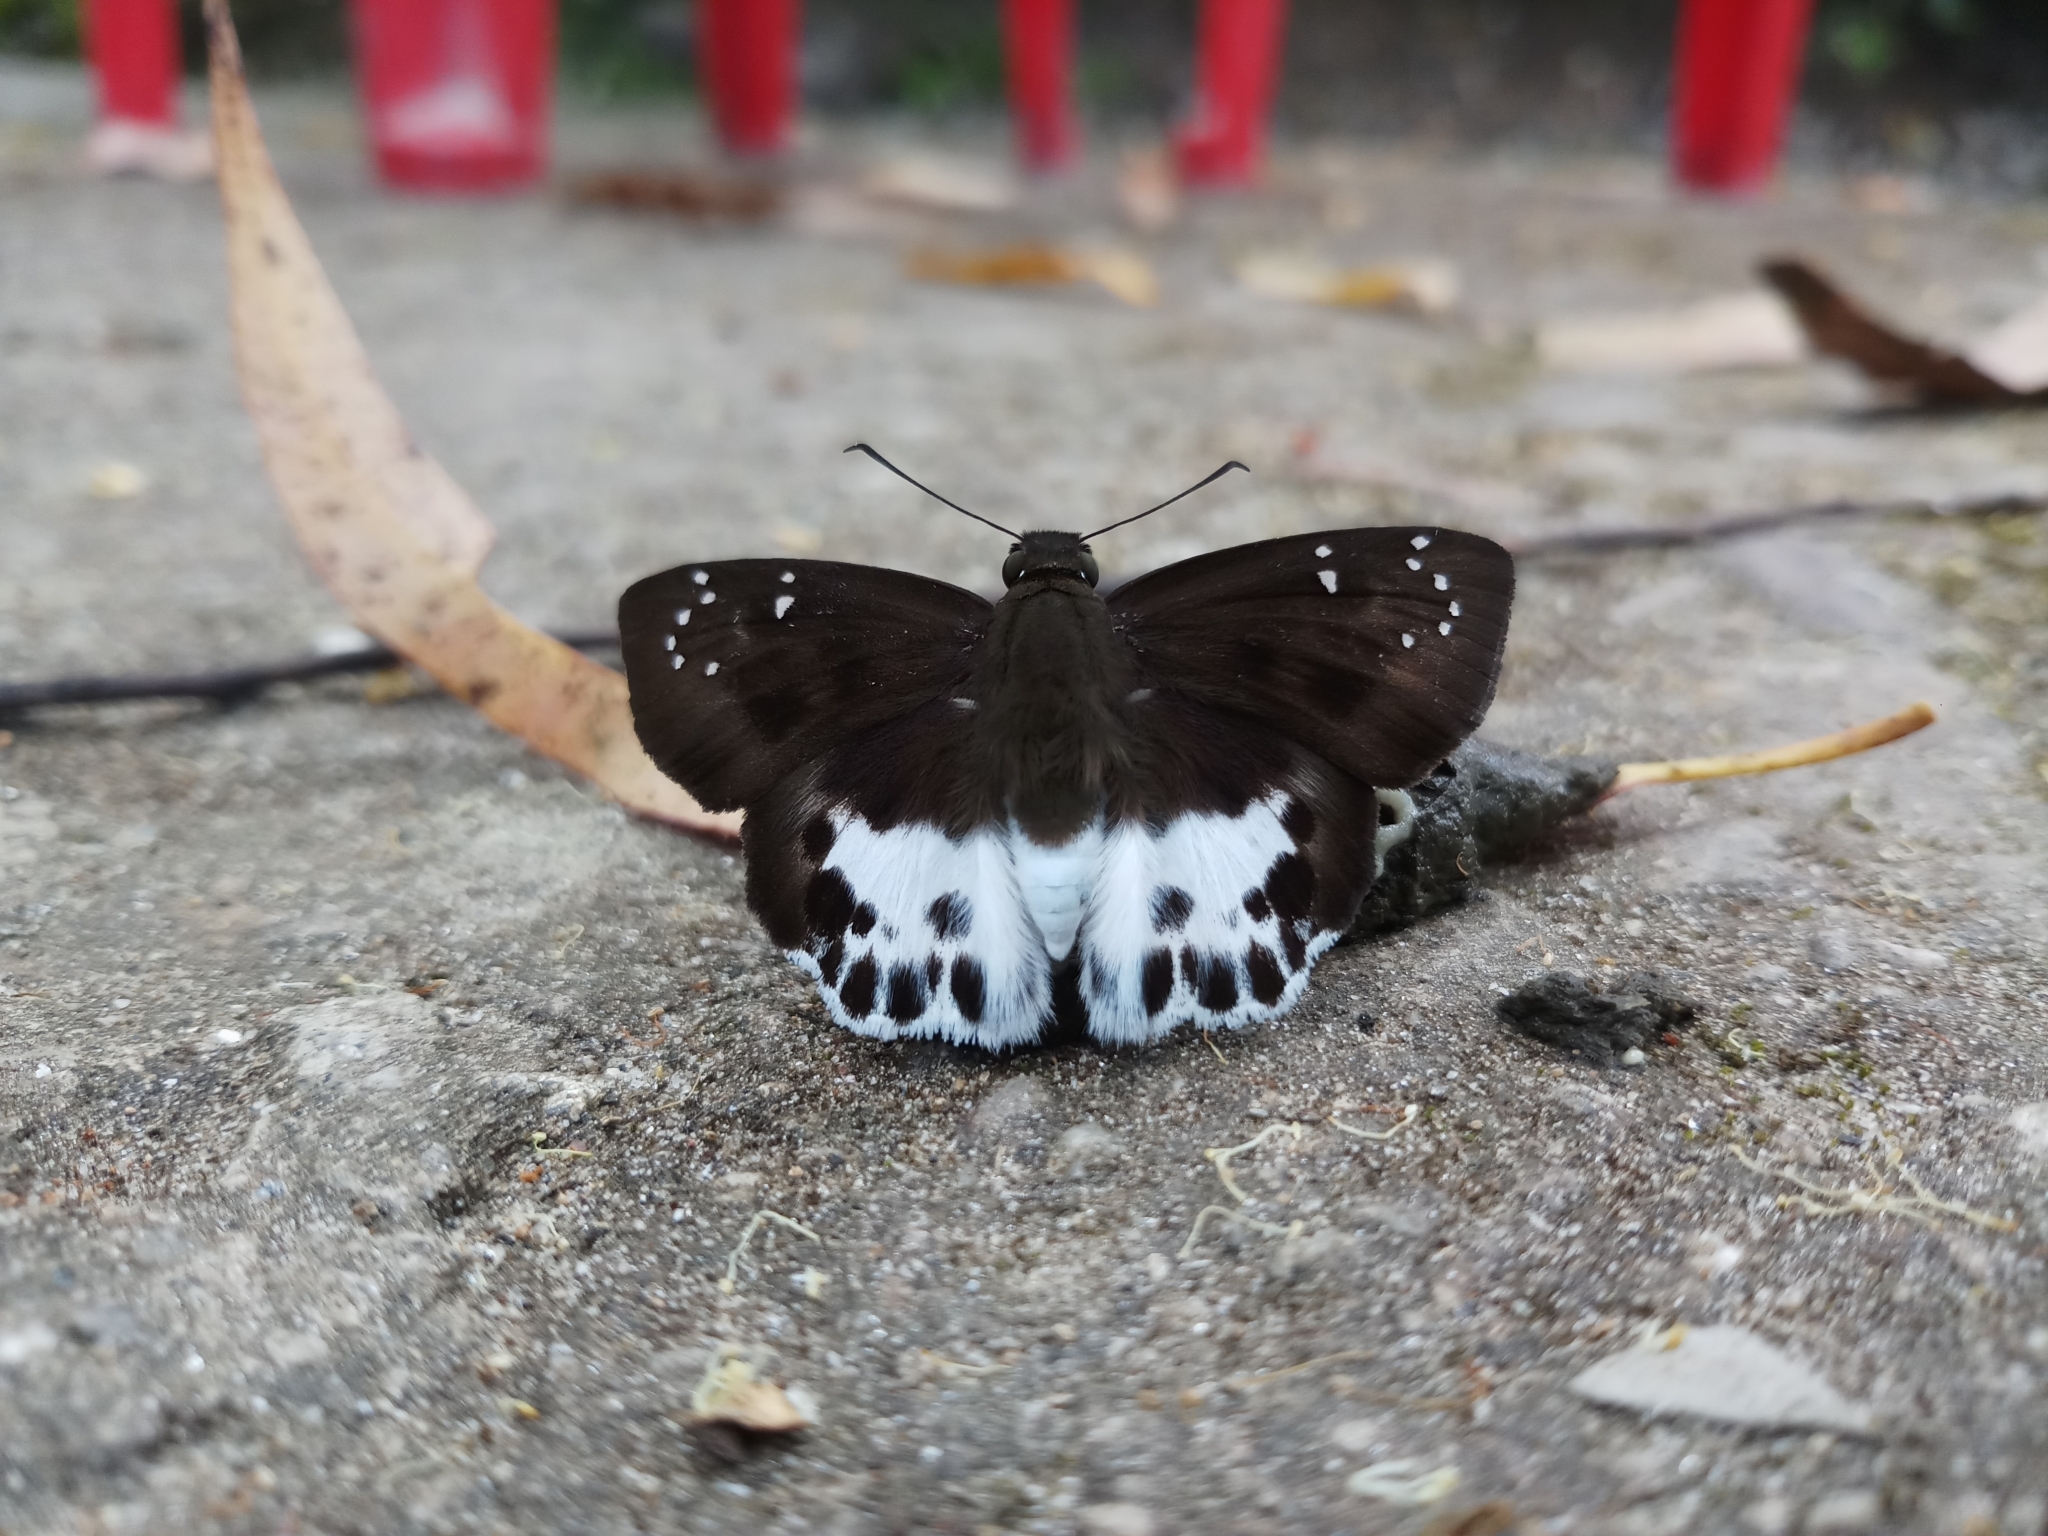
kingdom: Animalia
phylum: Arthropoda
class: Insecta
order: Lepidoptera
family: Hesperiidae
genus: Tagiades
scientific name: Tagiades menaka
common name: Dark-edged snow flat
